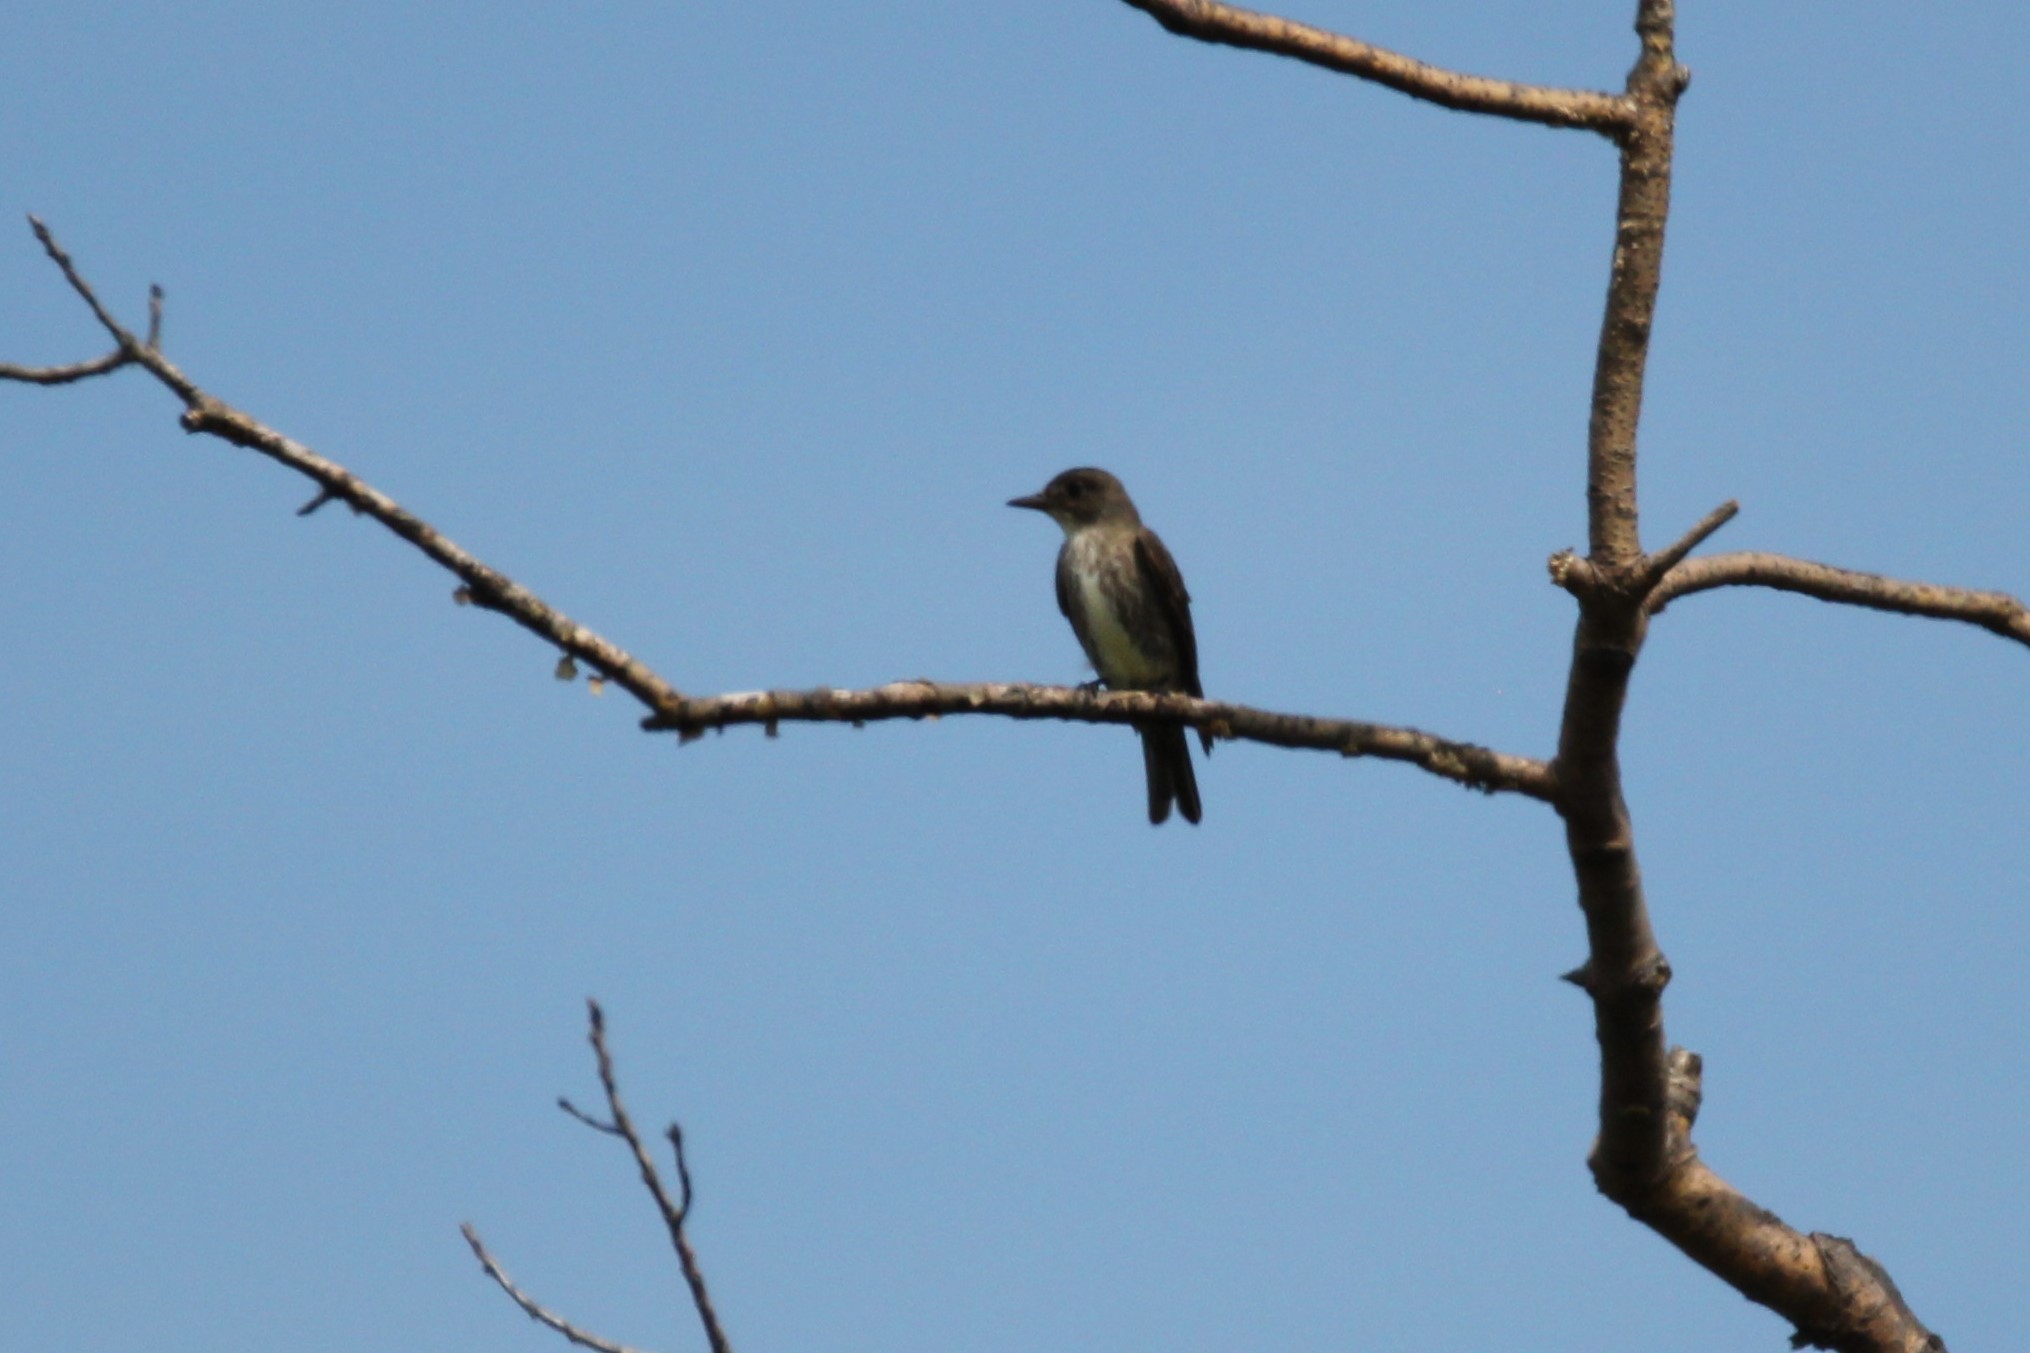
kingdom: Animalia
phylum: Chordata
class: Aves
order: Passeriformes
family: Tyrannidae
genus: Contopus
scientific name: Contopus cooperi
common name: Olive-sided flycatcher
